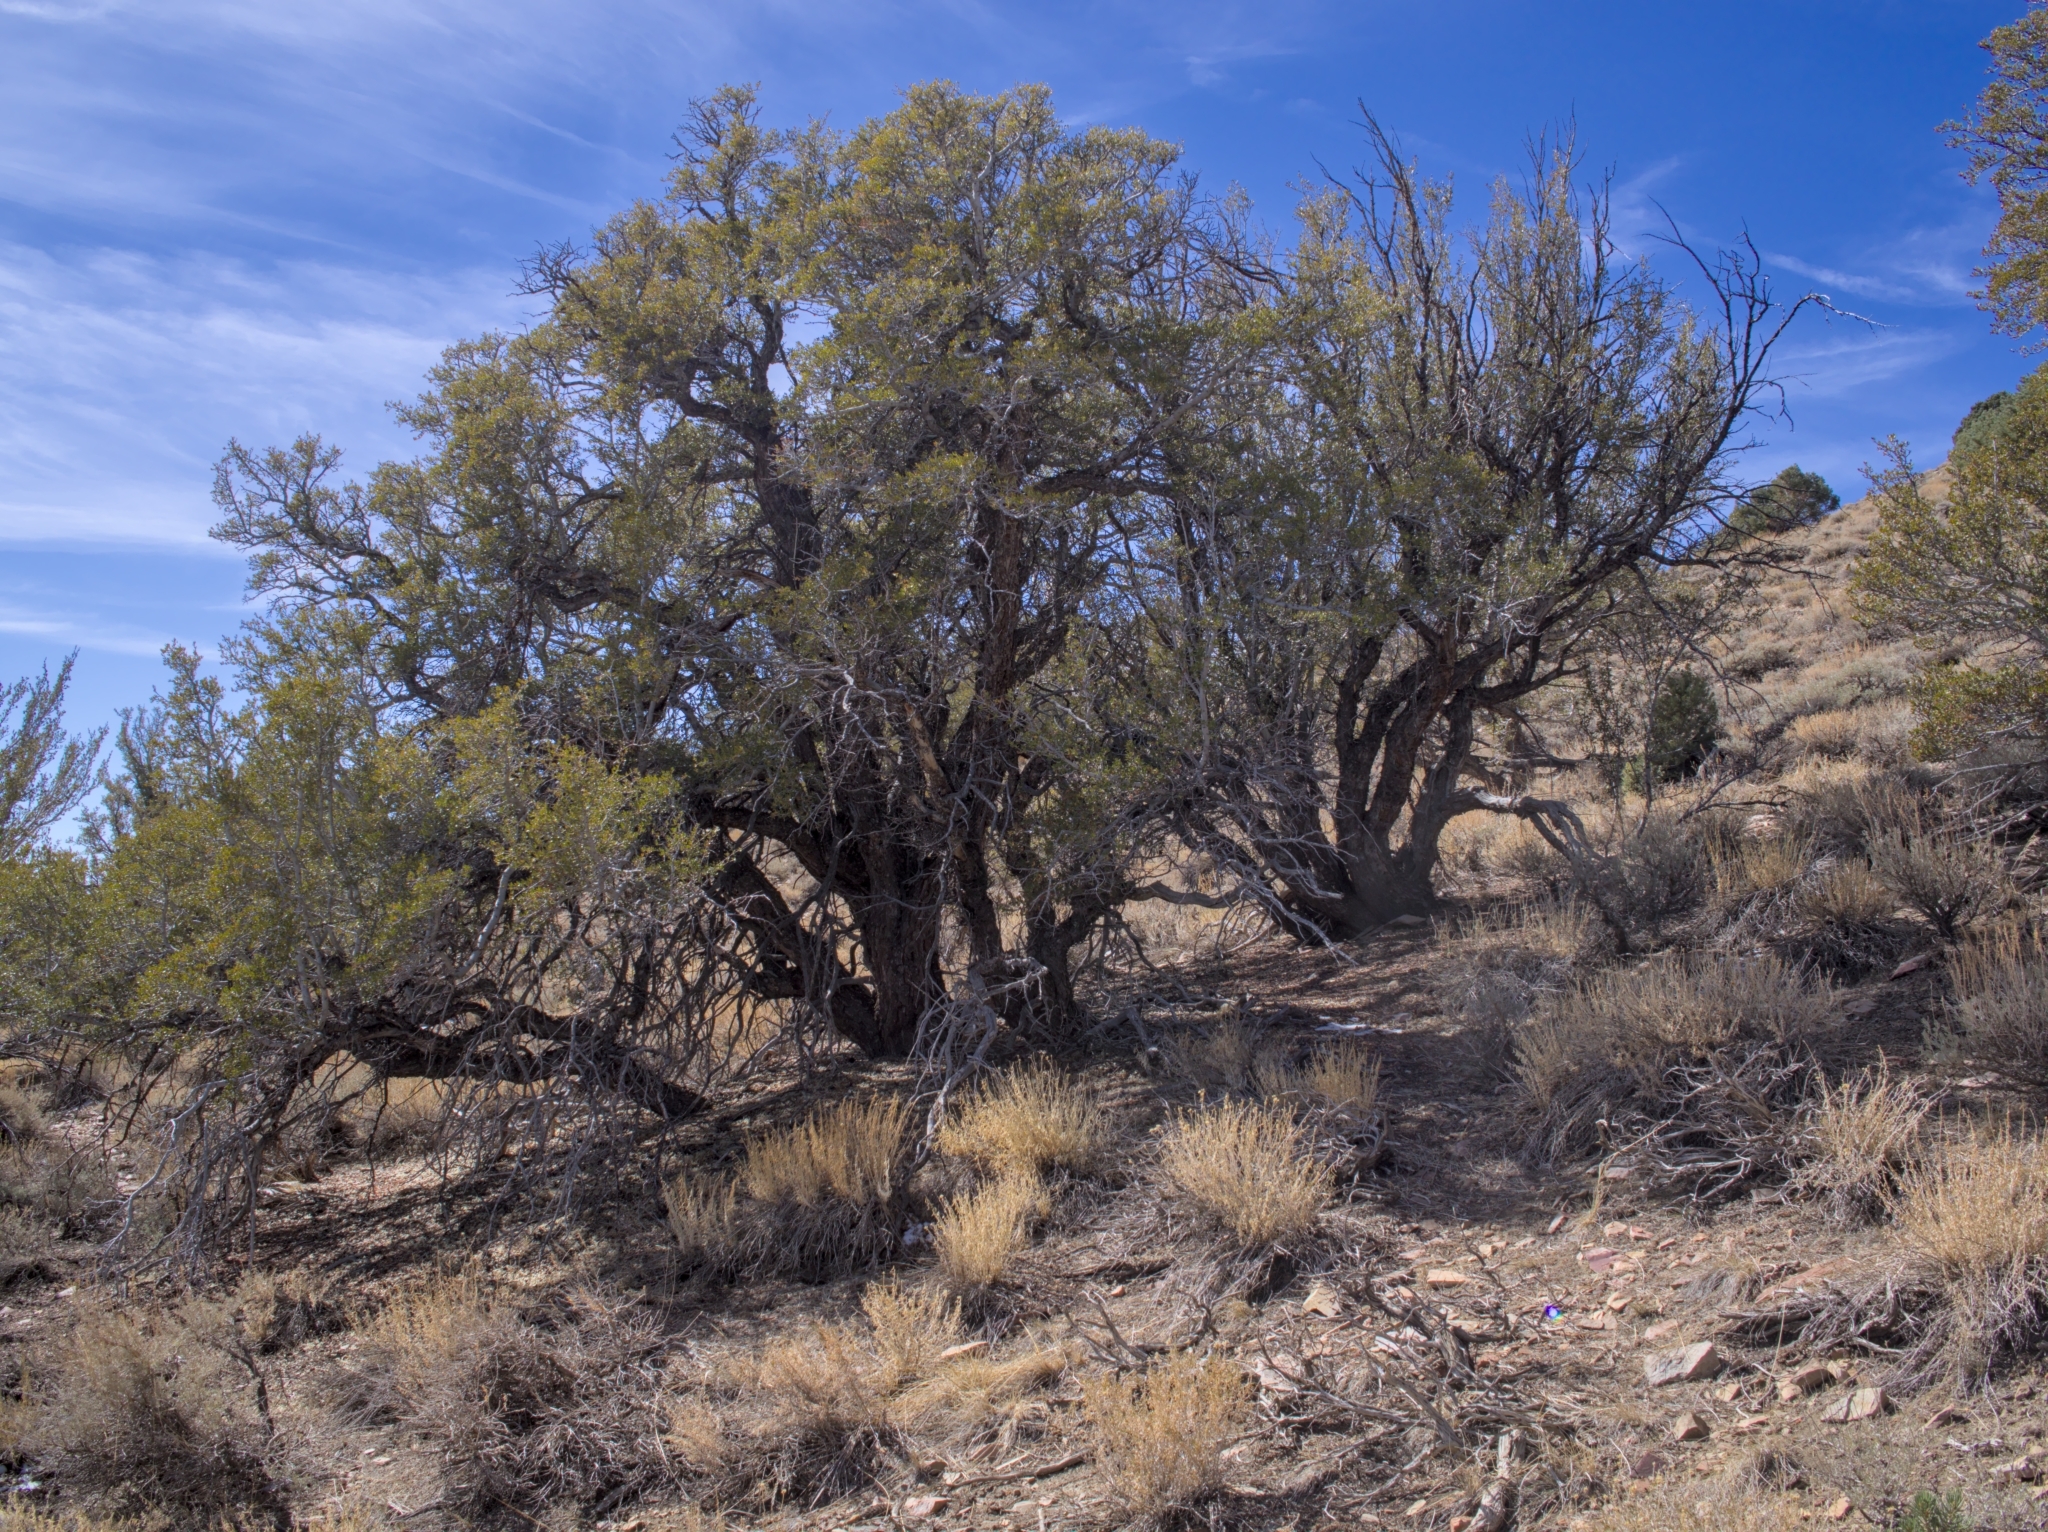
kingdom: Plantae
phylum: Tracheophyta
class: Magnoliopsida
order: Rosales
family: Rosaceae
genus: Cercocarpus
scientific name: Cercocarpus ledifolius
